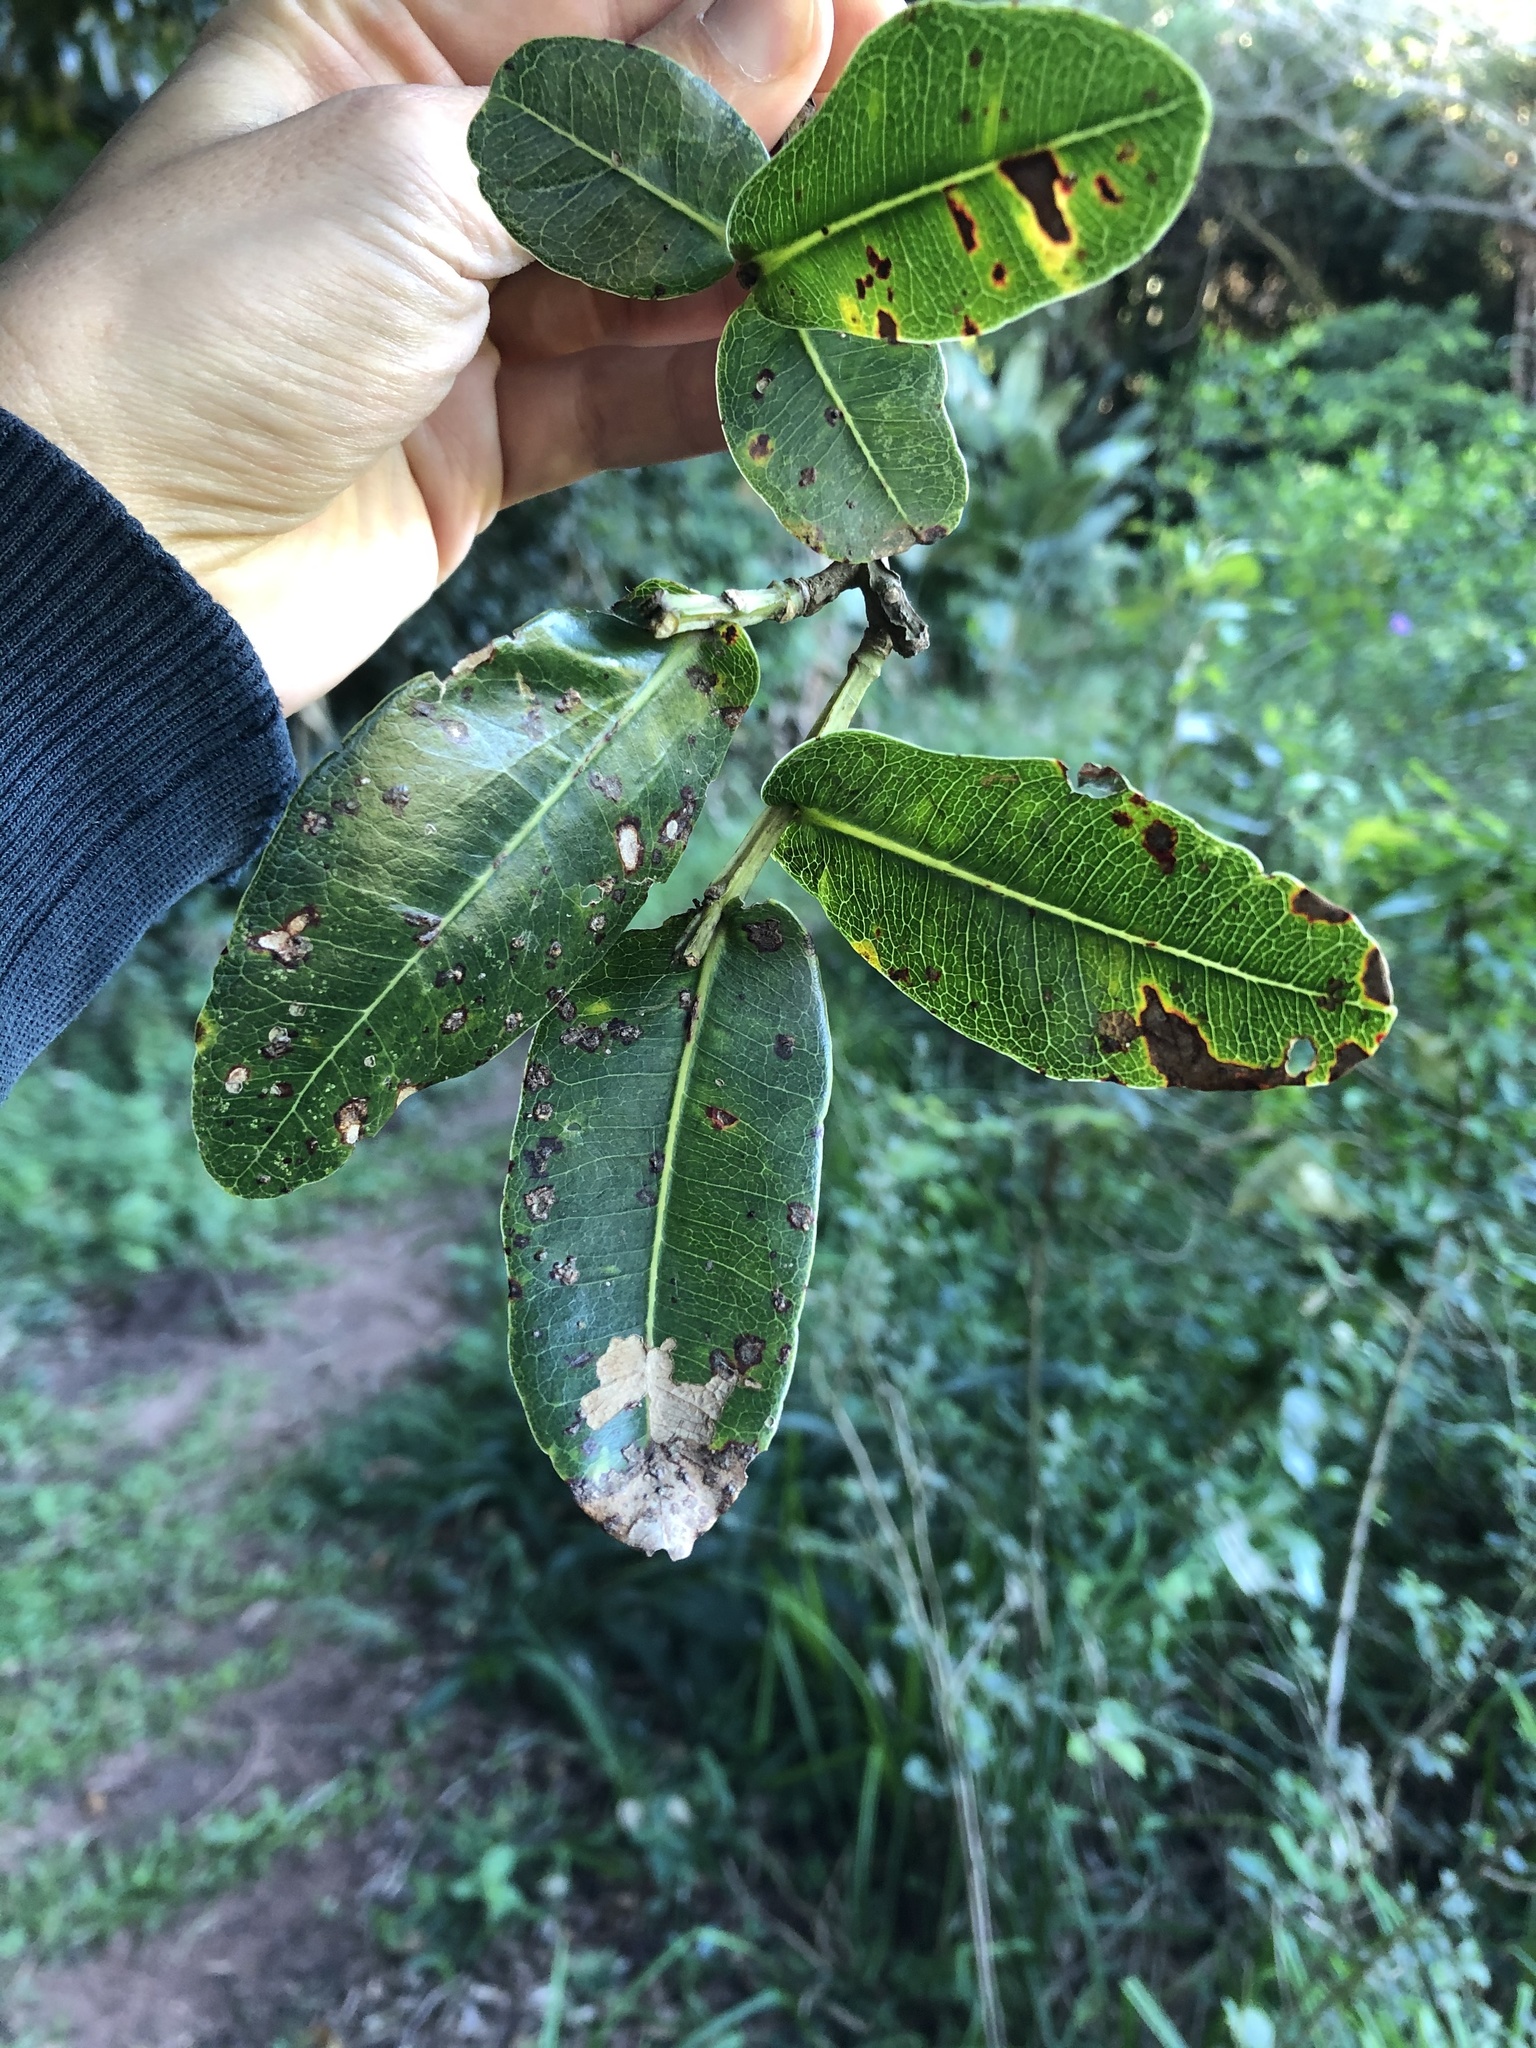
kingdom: Plantae
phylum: Tracheophyta
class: Magnoliopsida
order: Myrtales
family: Myrtaceae
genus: Syzygium
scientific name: Syzygium cordatum
